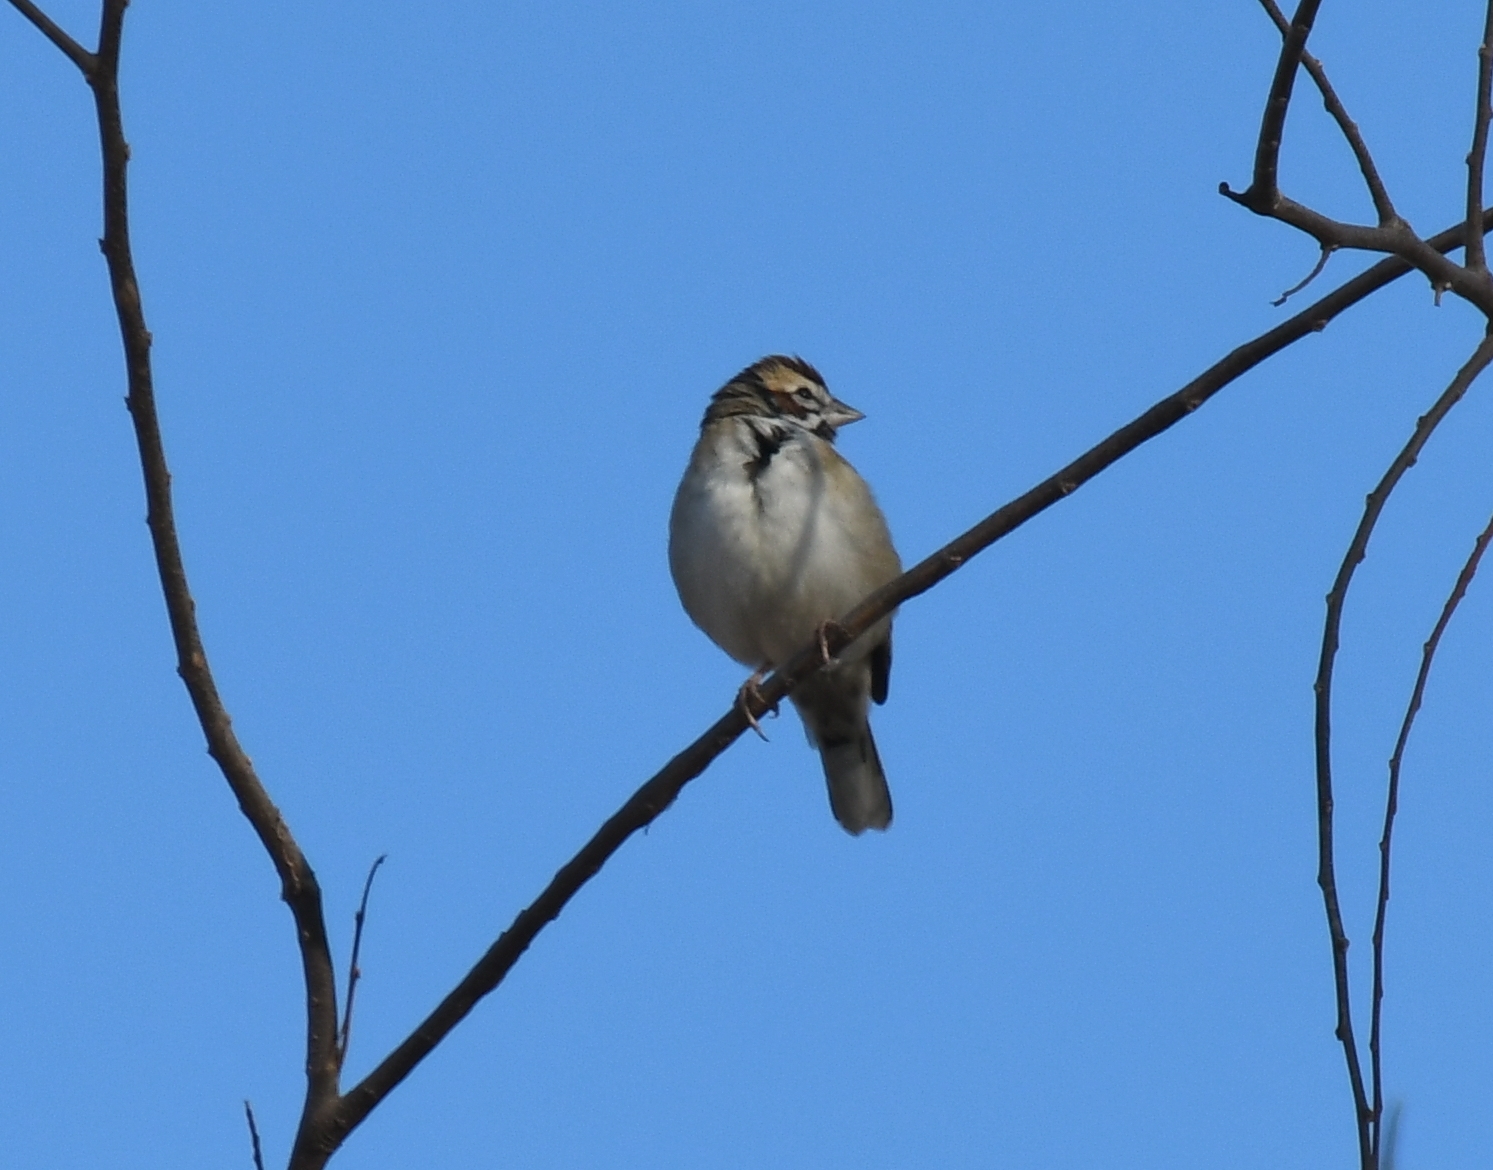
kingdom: Animalia
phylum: Chordata
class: Aves
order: Passeriformes
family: Passerellidae
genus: Chondestes
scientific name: Chondestes grammacus
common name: Lark sparrow
